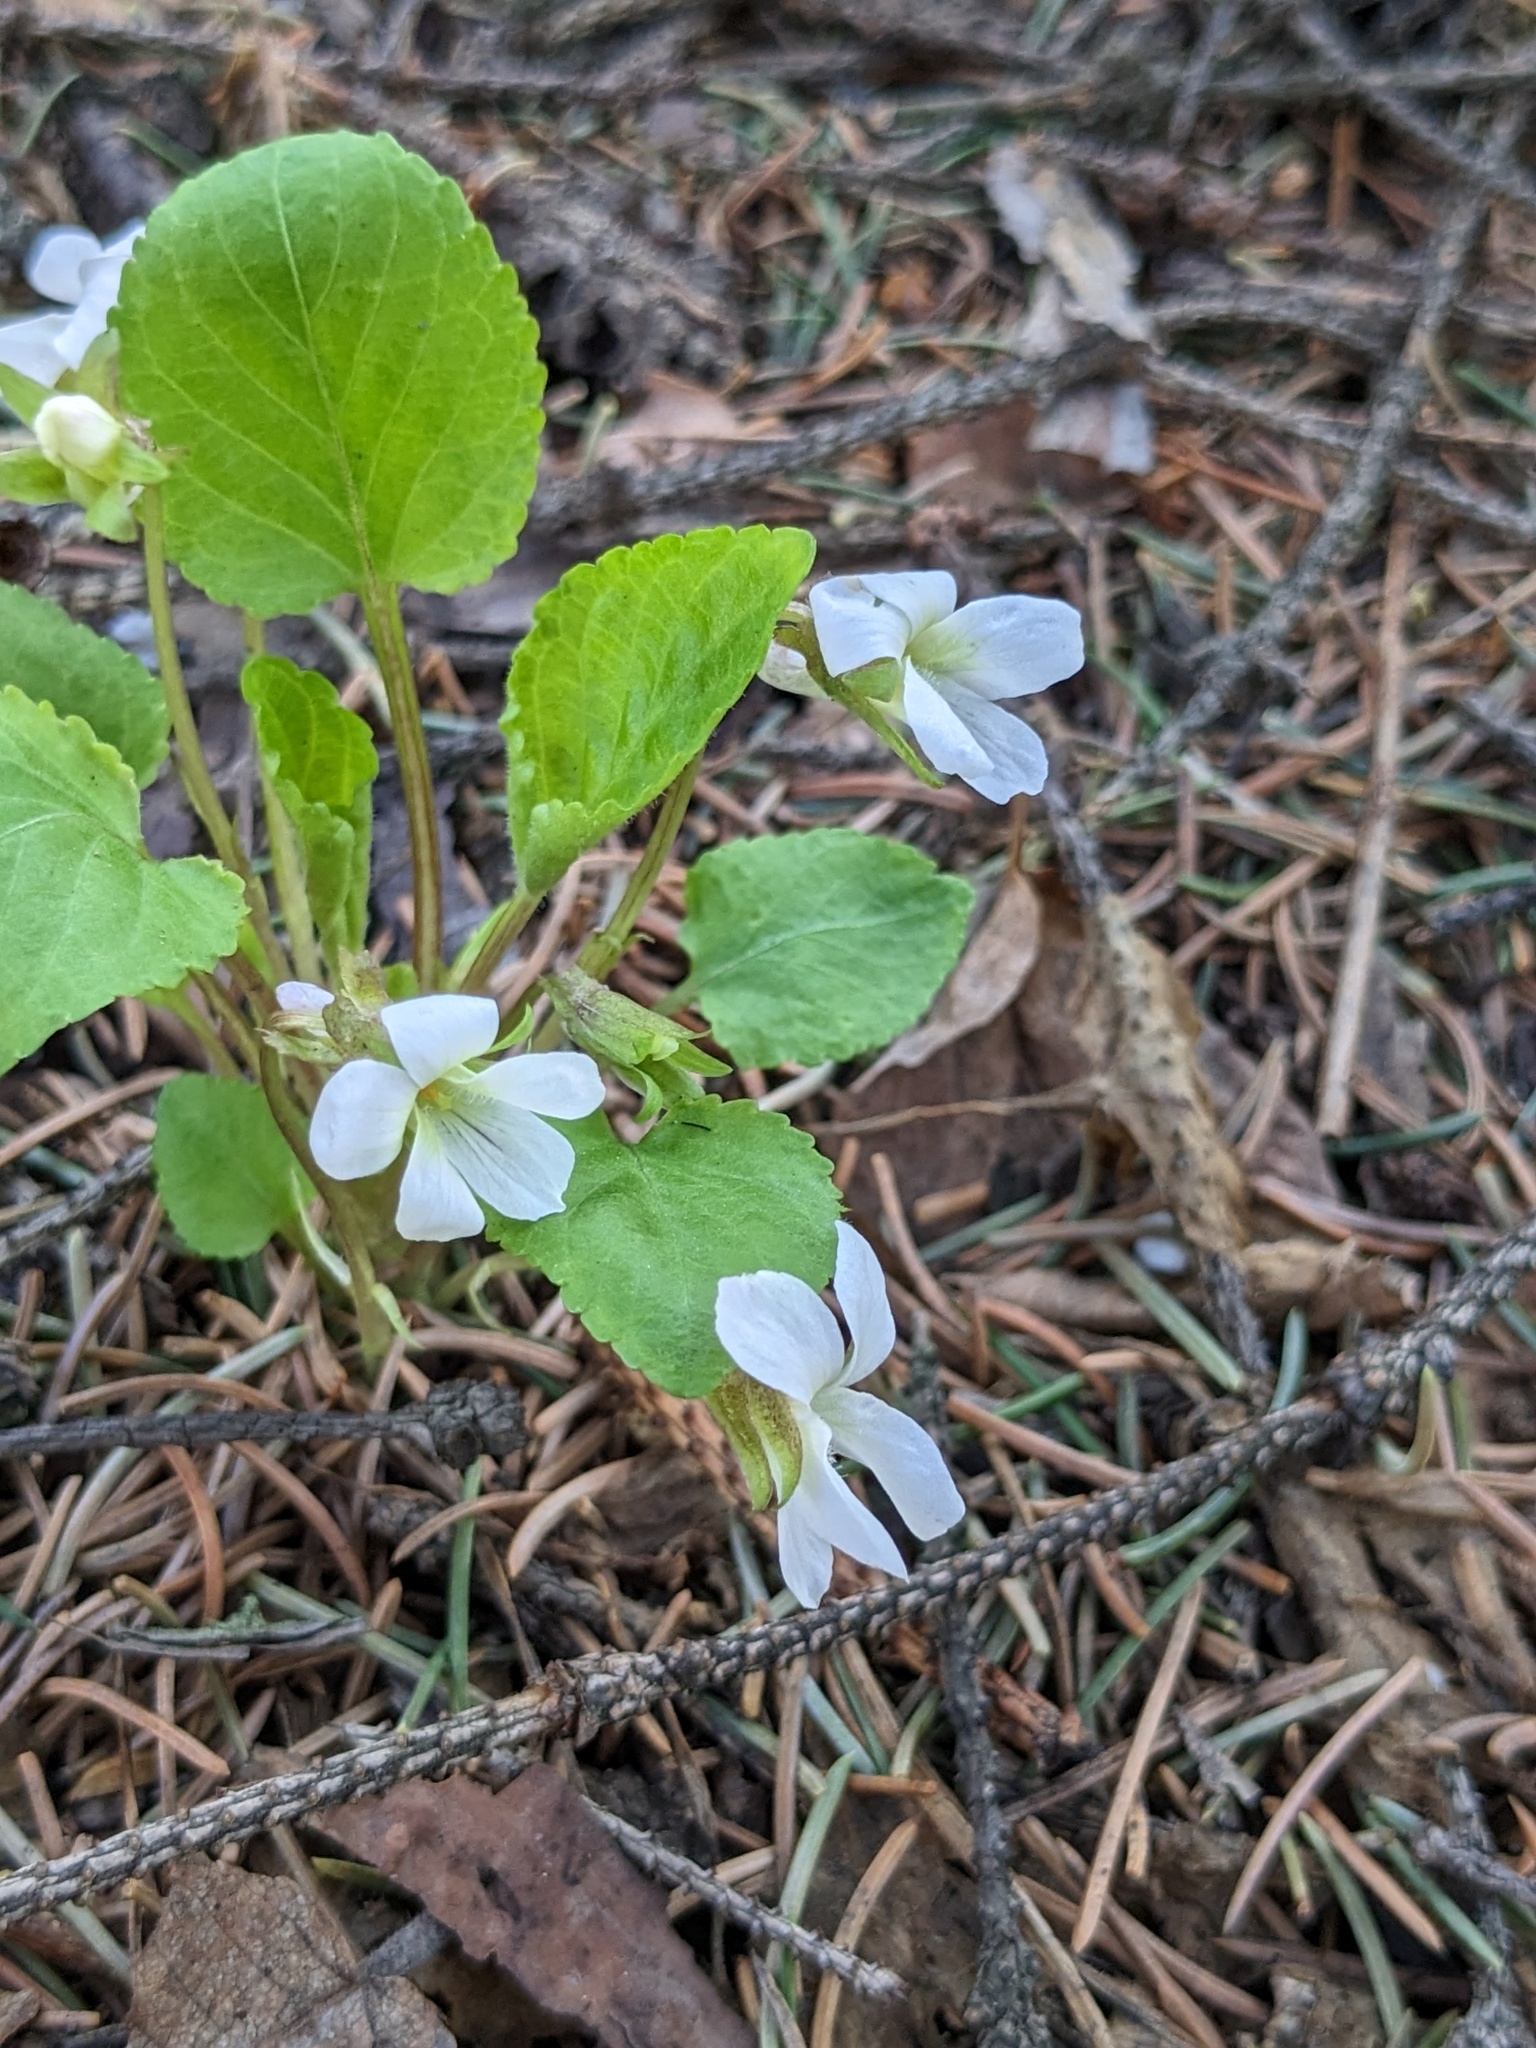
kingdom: Plantae
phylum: Tracheophyta
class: Magnoliopsida
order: Malpighiales
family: Violaceae
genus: Viola
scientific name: Viola pacifica
